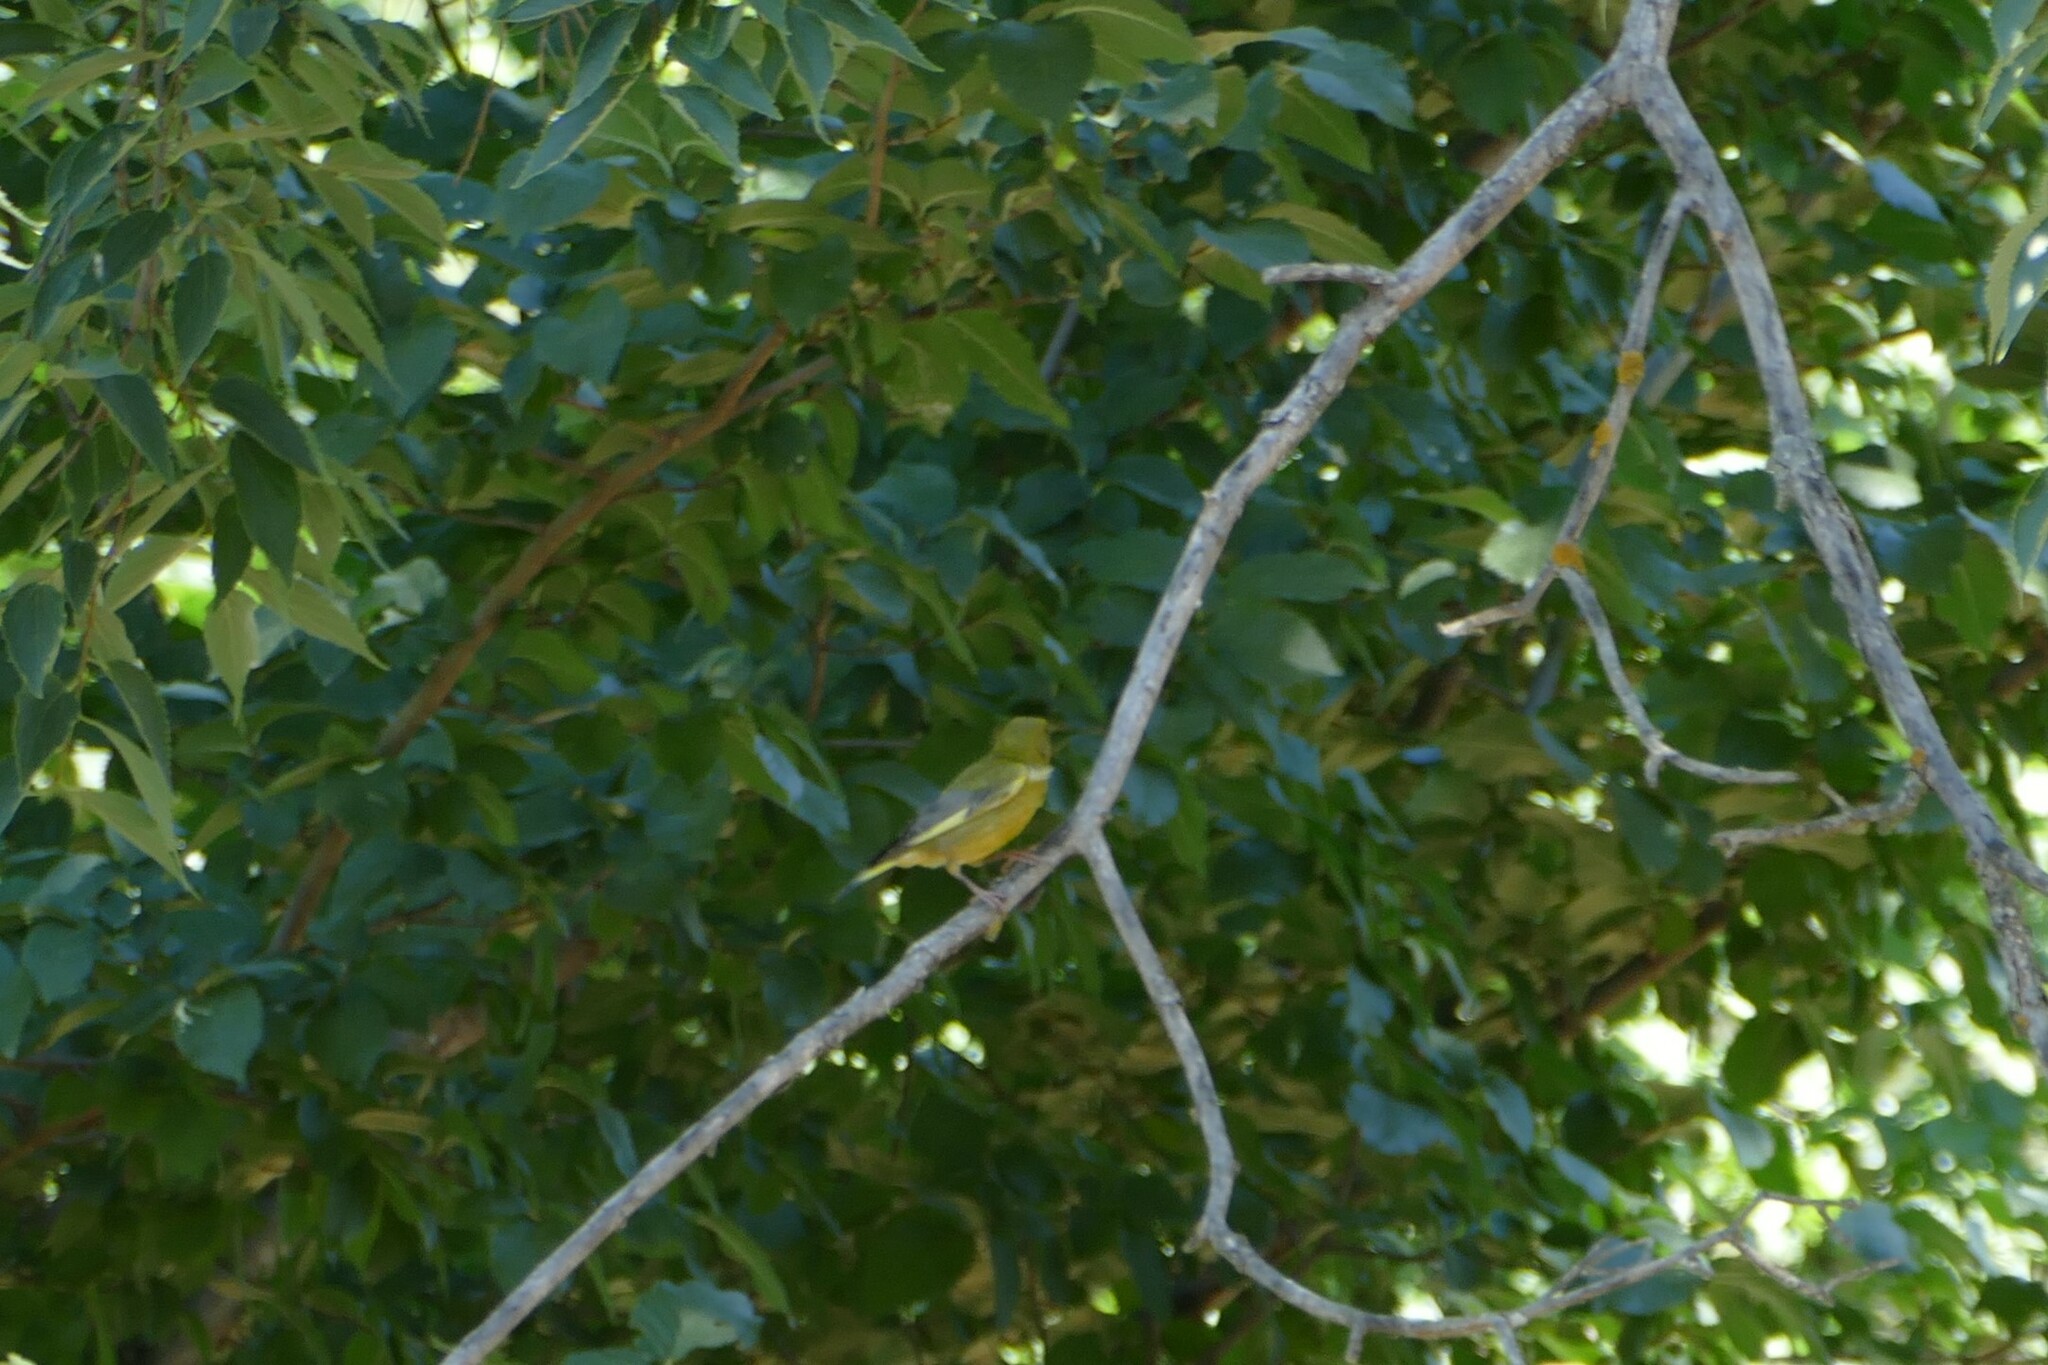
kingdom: Plantae
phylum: Tracheophyta
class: Liliopsida
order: Poales
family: Poaceae
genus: Chloris
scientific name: Chloris chloris
